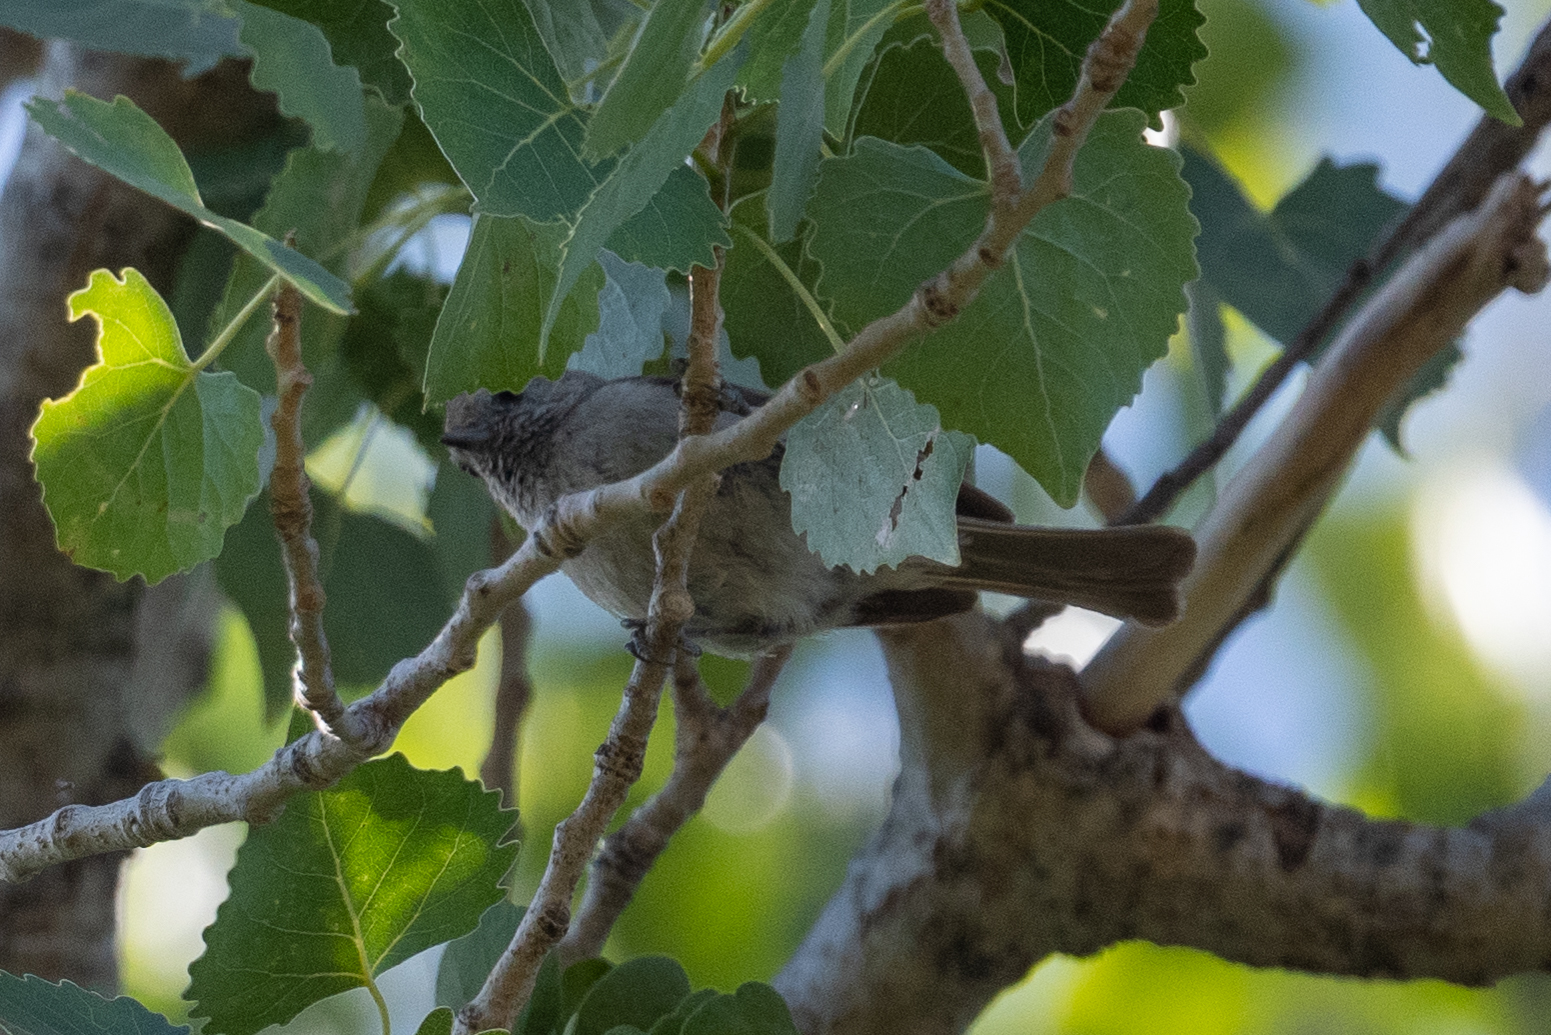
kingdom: Animalia
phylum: Chordata
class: Aves
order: Passeriformes
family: Paridae
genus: Baeolophus
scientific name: Baeolophus inornatus
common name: Oak titmouse
